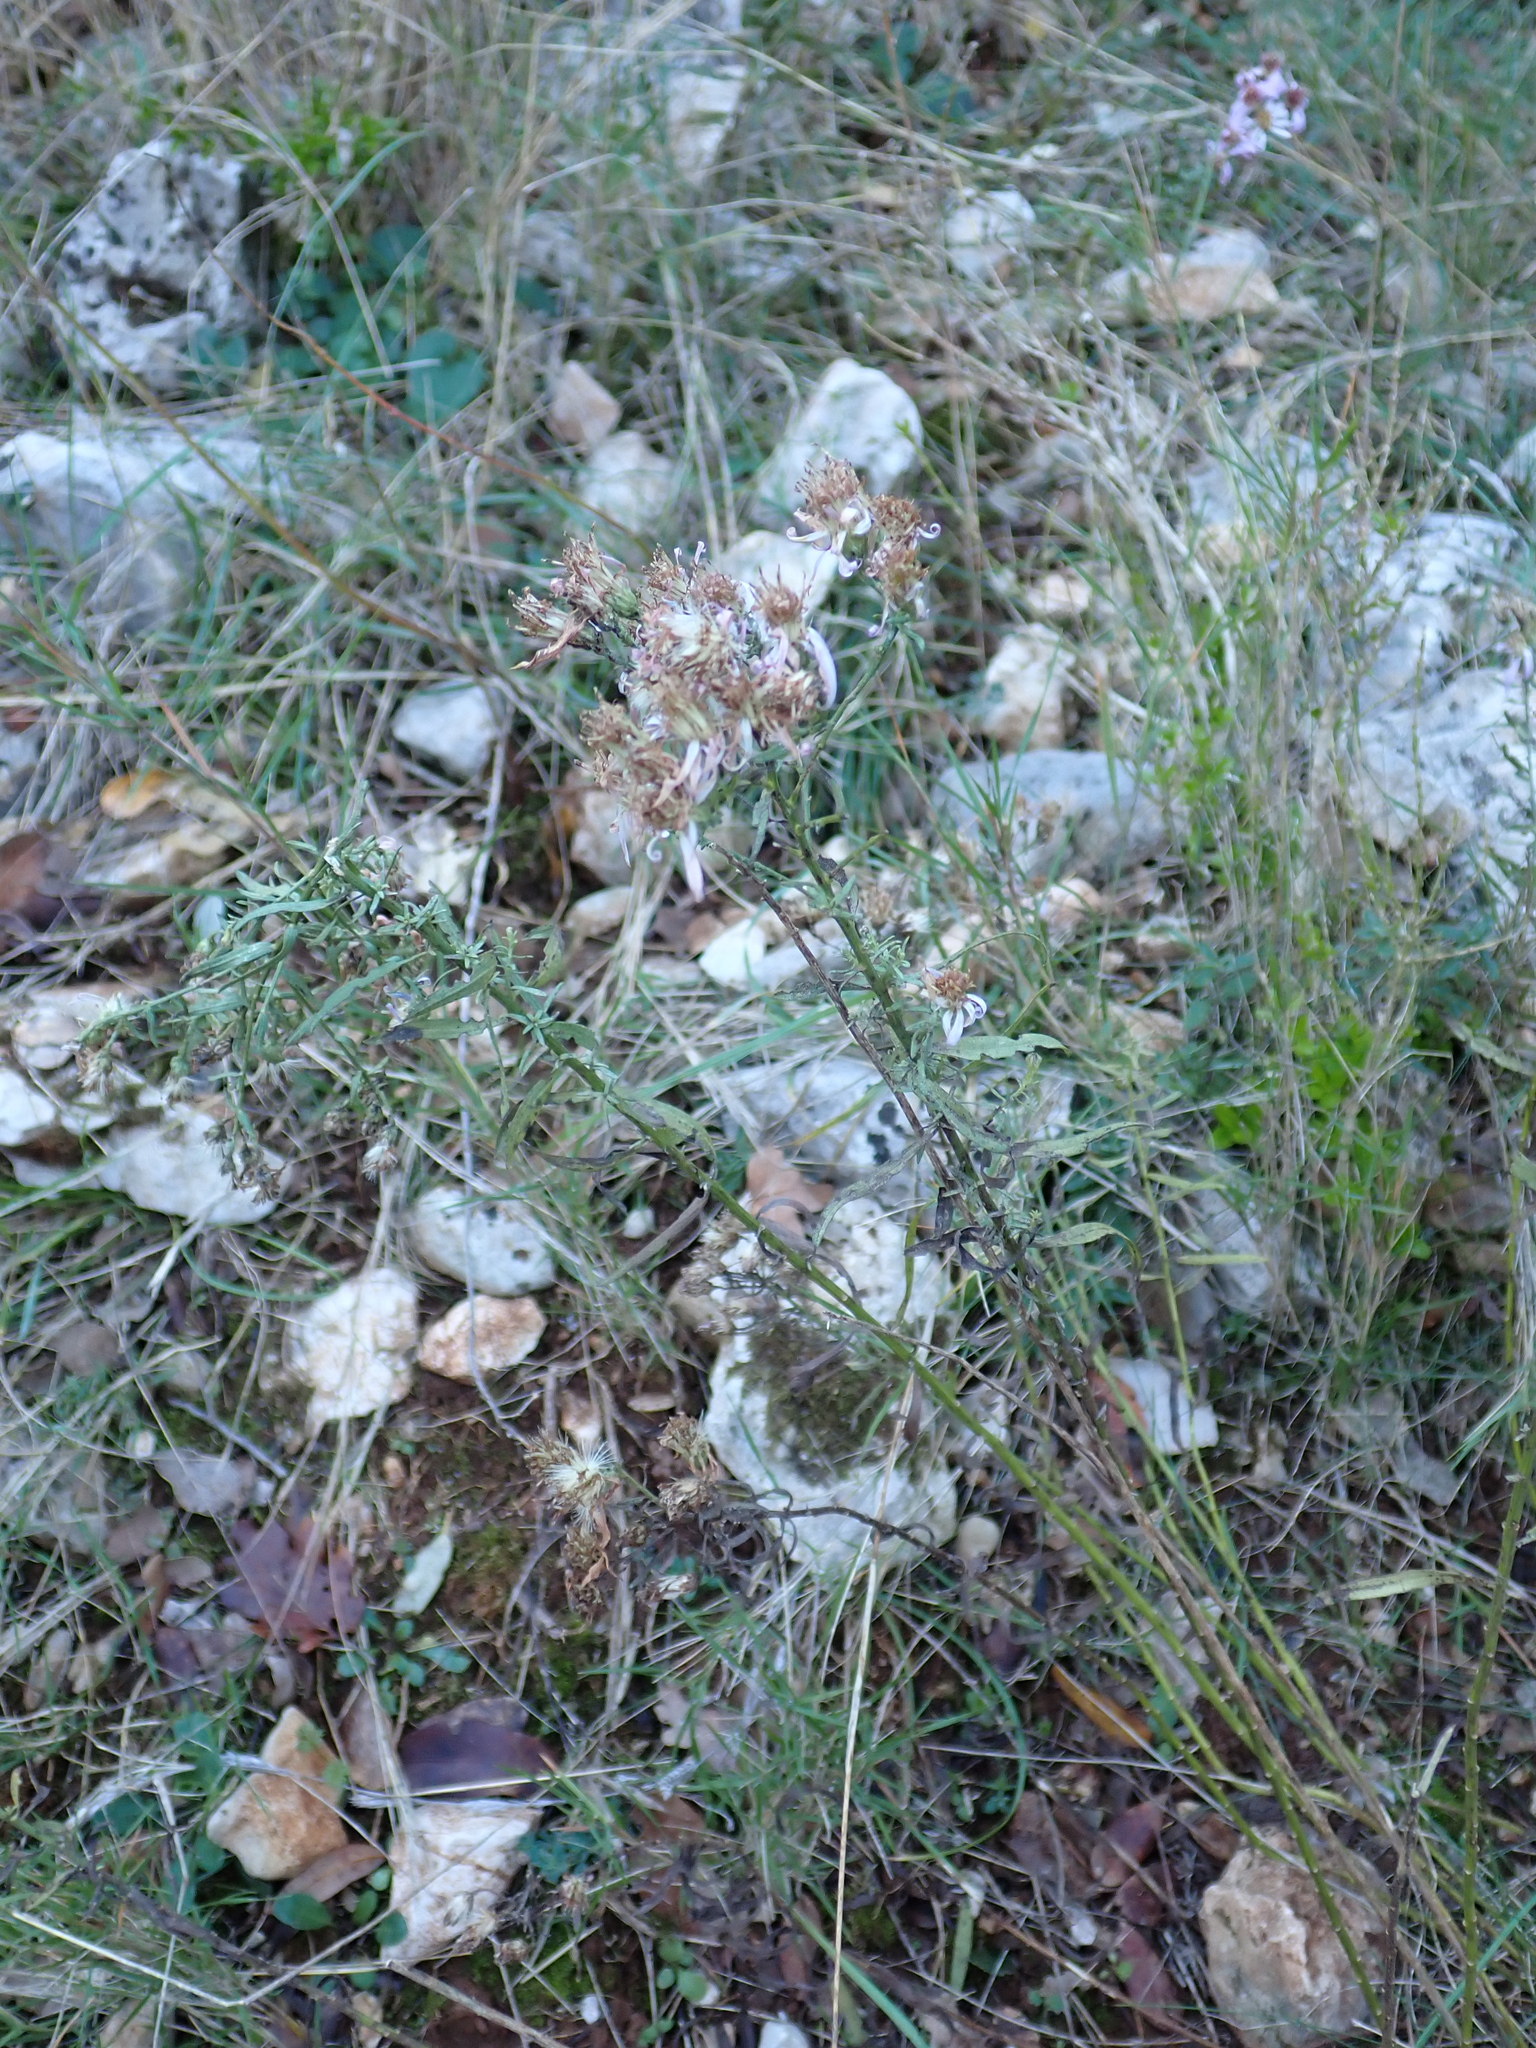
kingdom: Plantae
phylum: Tracheophyta
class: Magnoliopsida
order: Asterales
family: Asteraceae
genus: Galatella
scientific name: Galatella sedifolia
